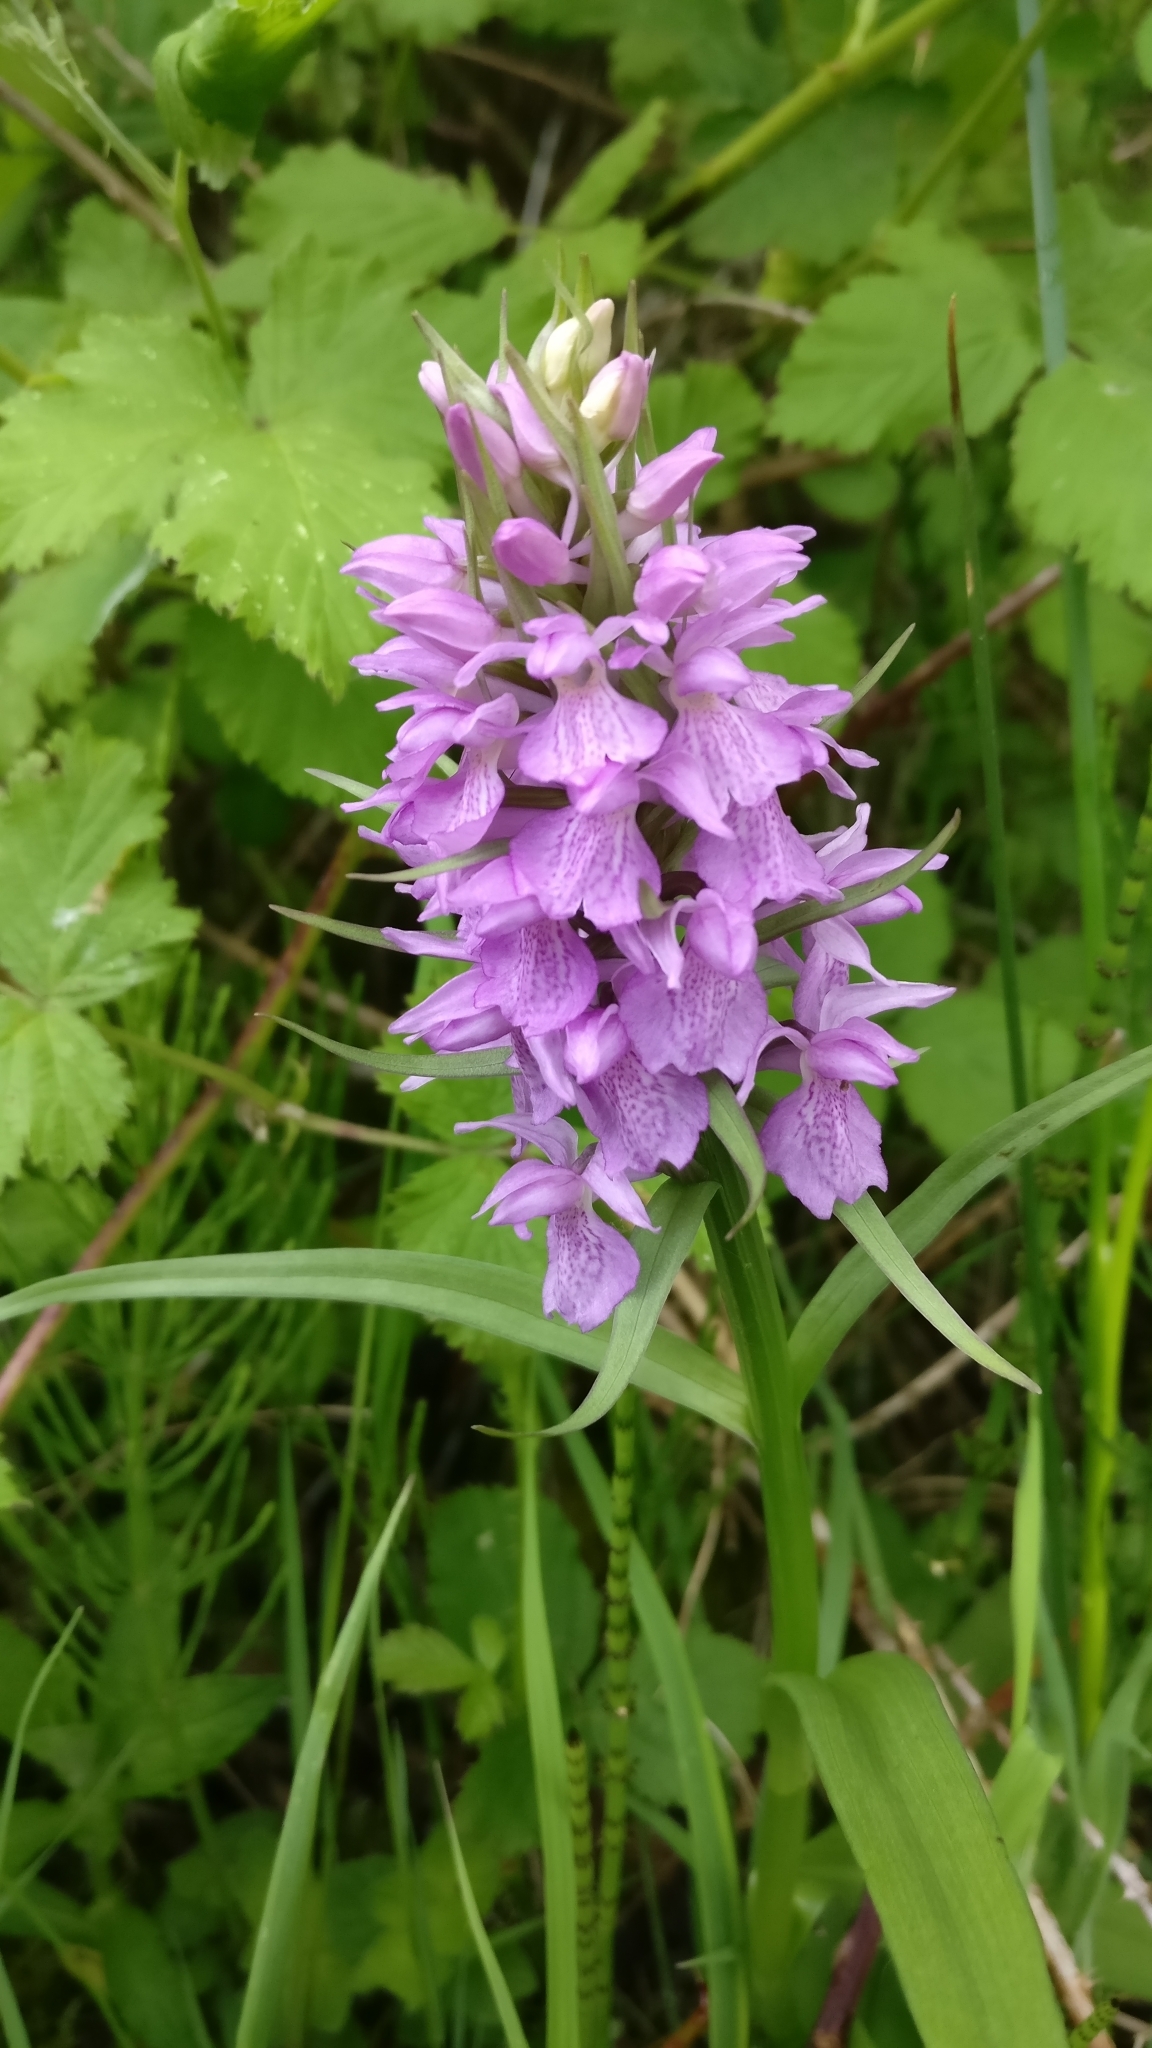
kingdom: Plantae
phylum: Tracheophyta
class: Liliopsida
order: Asparagales
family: Orchidaceae
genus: Dactylorhiza
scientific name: Dactylorhiza majalis
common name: Marsh orchid
